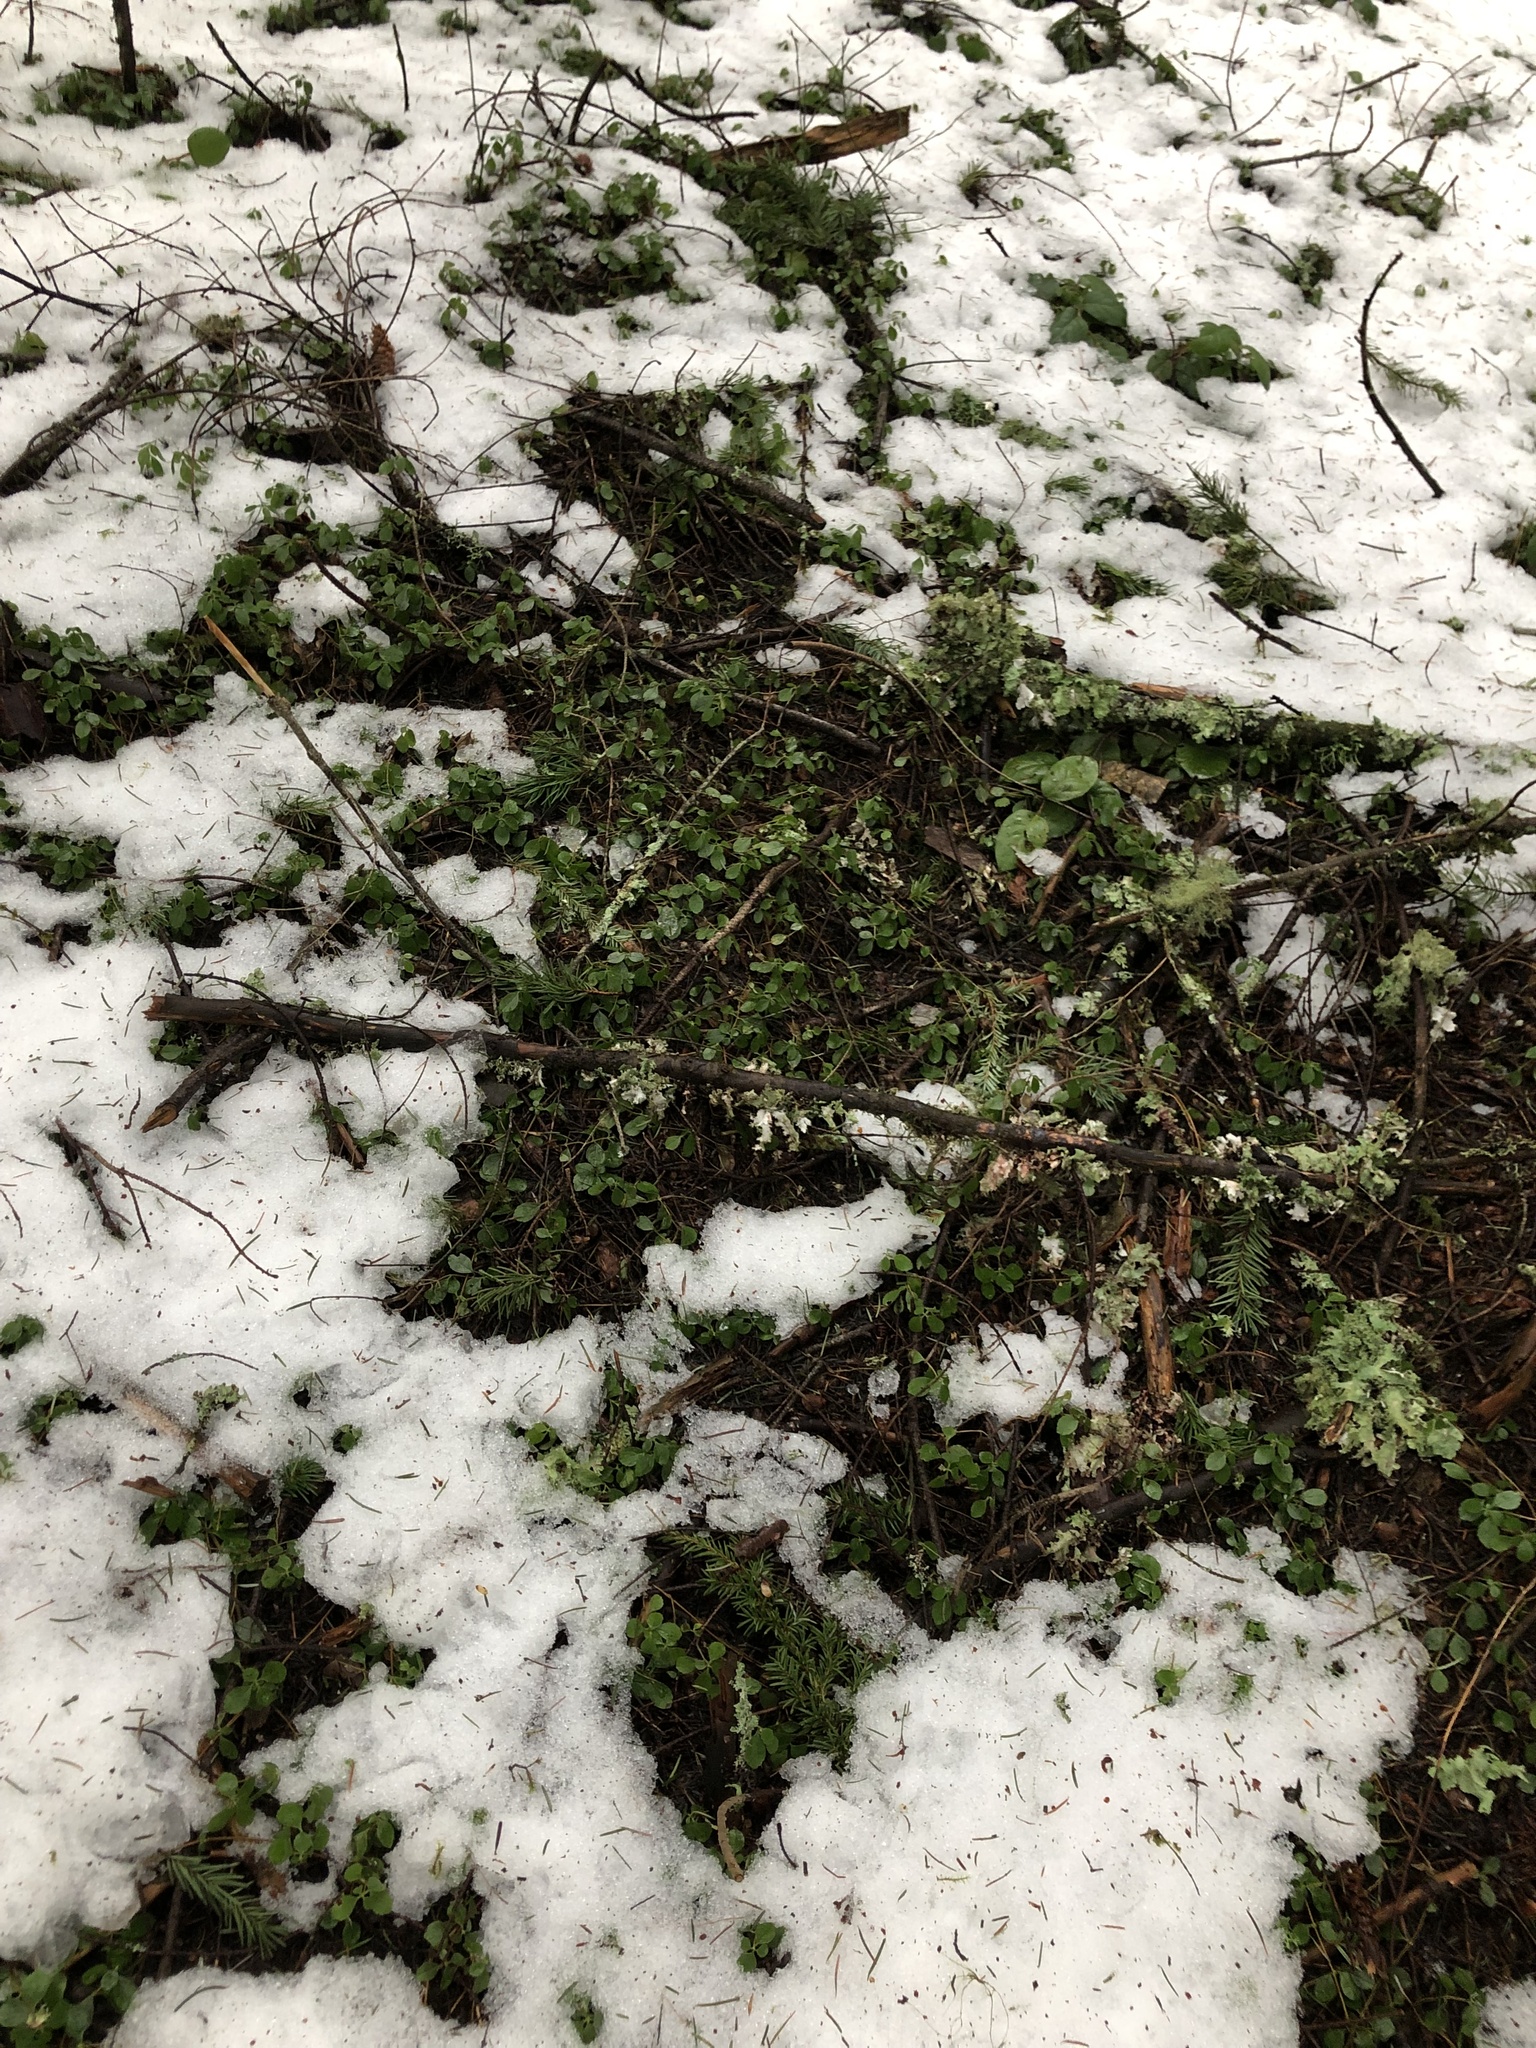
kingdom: Plantae
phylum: Tracheophyta
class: Magnoliopsida
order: Dipsacales
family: Caprifoliaceae
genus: Linnaea
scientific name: Linnaea borealis
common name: Twinflower
